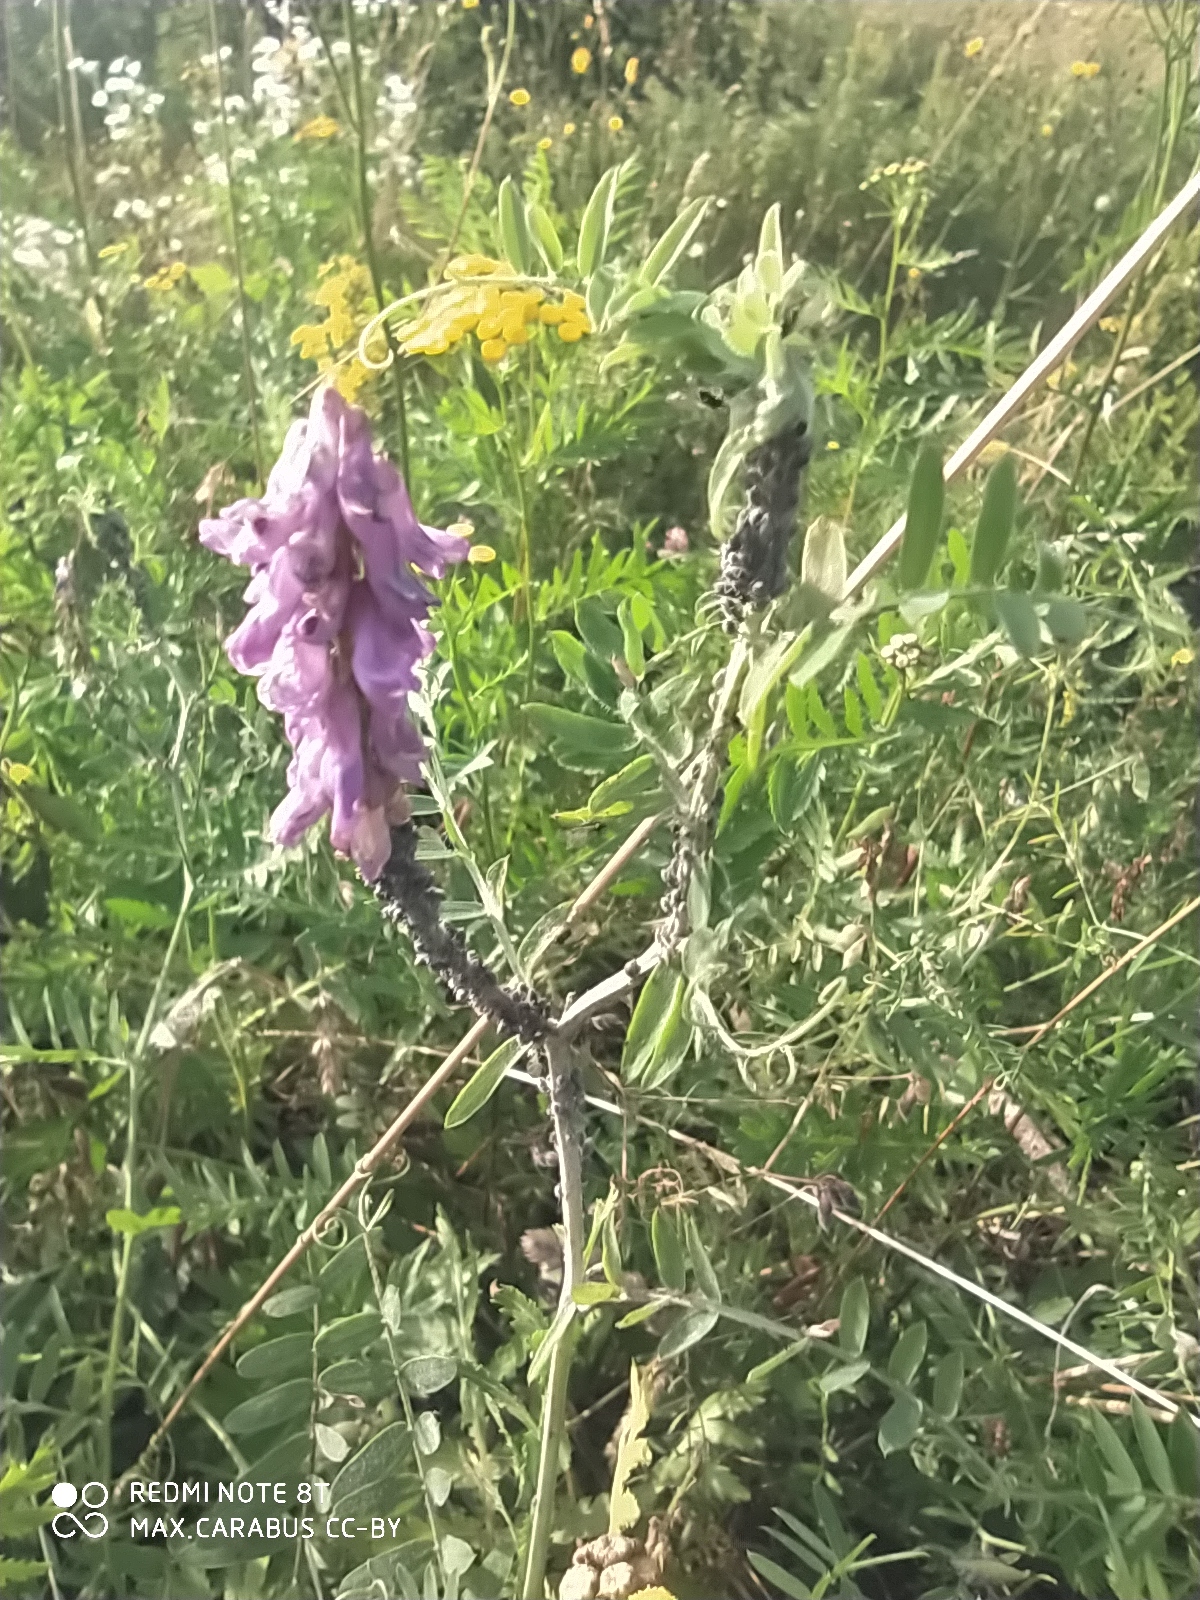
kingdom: Plantae
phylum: Tracheophyta
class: Magnoliopsida
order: Fabales
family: Fabaceae
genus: Vicia
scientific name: Vicia cracca
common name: Bird vetch
